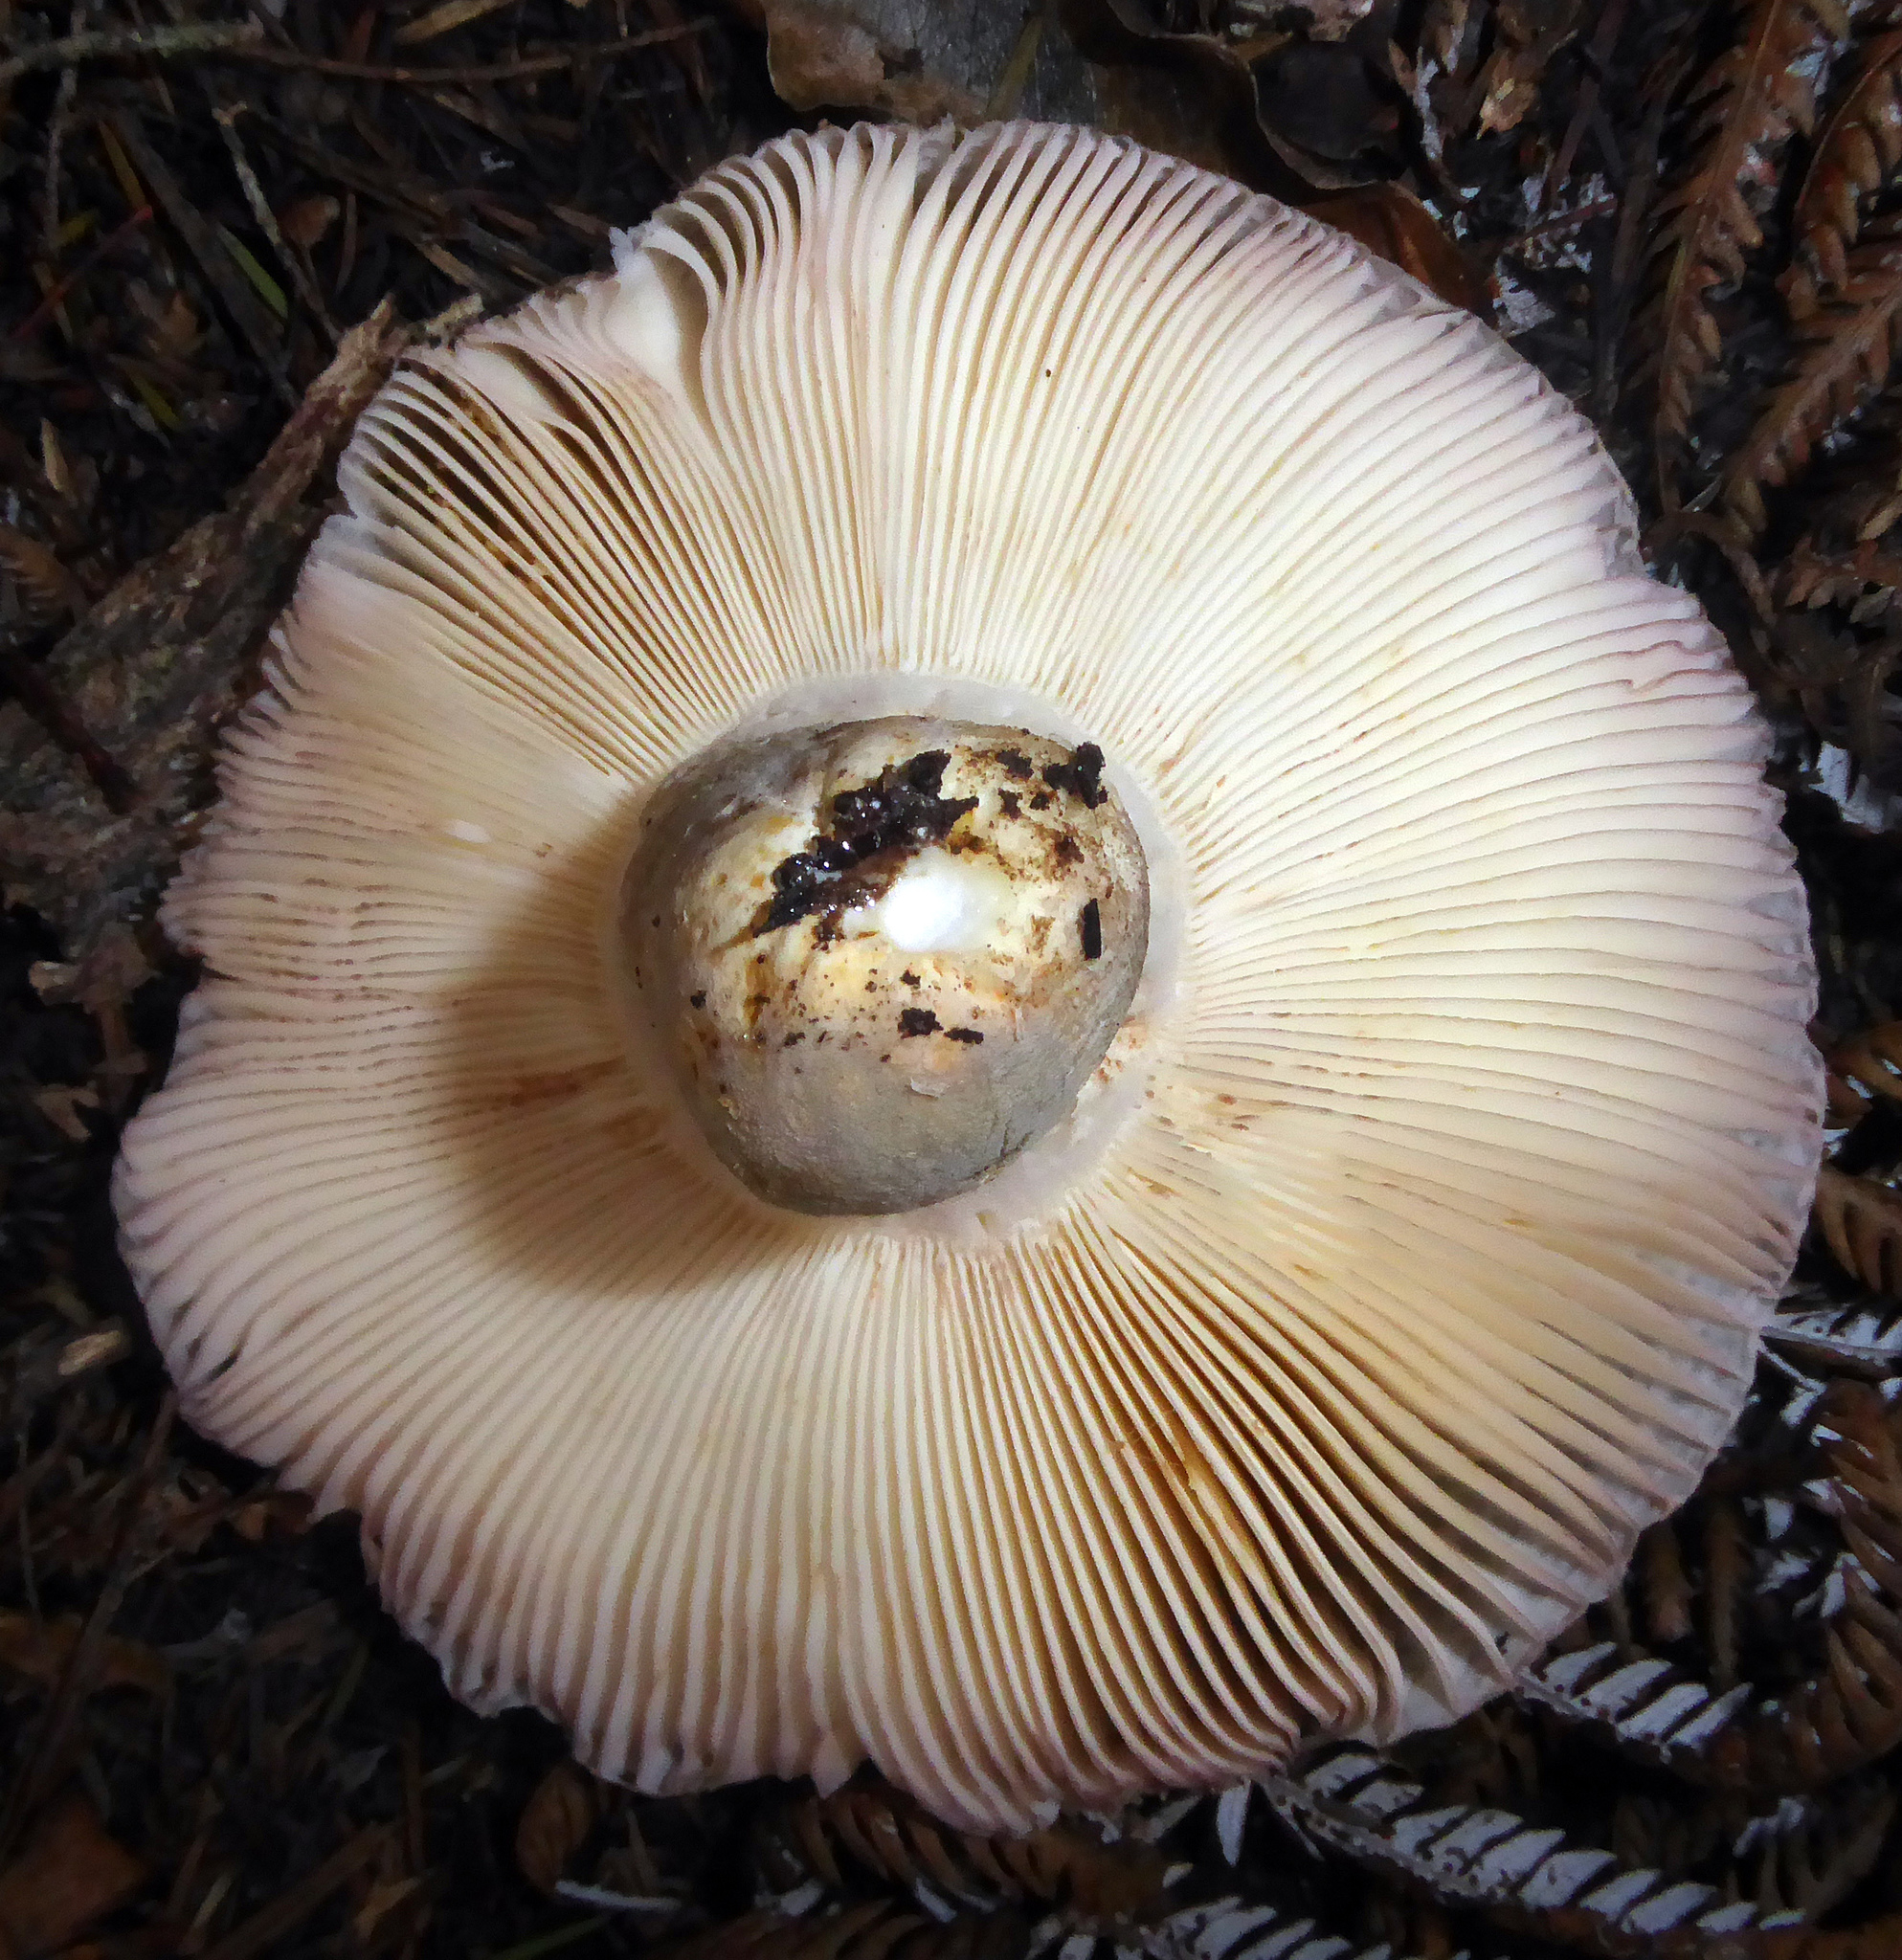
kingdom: Fungi
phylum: Basidiomycota
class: Agaricomycetes
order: Russulales
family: Russulaceae
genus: Russula
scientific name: Russula griseoviridis
